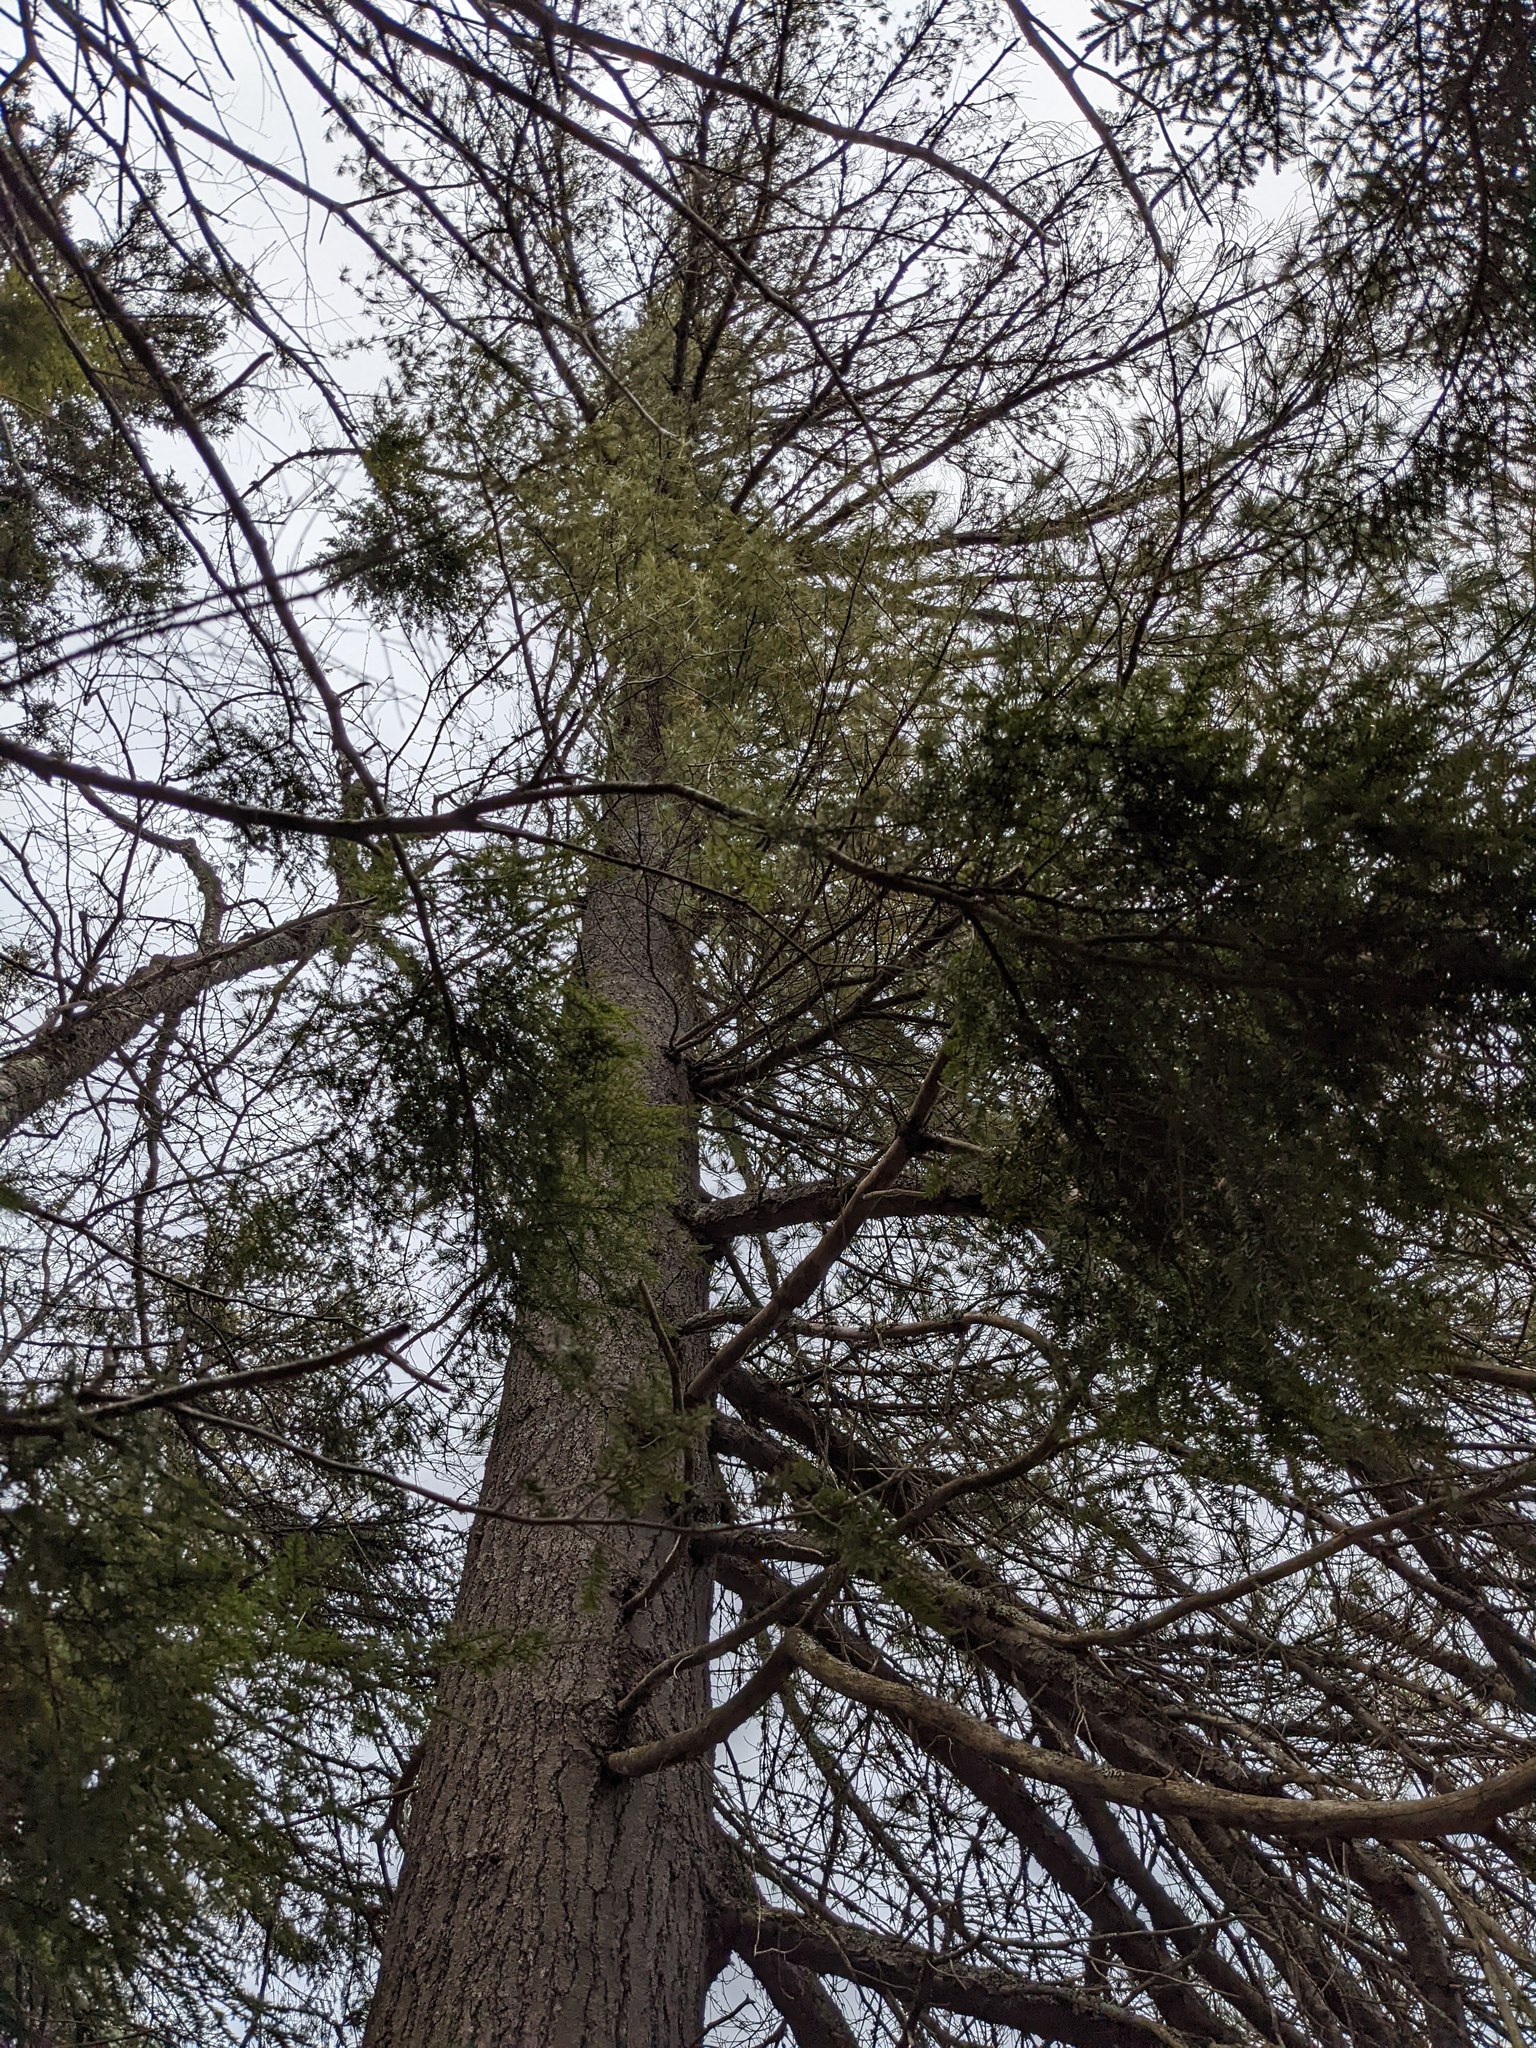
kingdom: Plantae
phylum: Tracheophyta
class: Pinopsida
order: Pinales
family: Pinaceae
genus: Pinus
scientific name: Pinus strobus
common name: Weymouth pine
